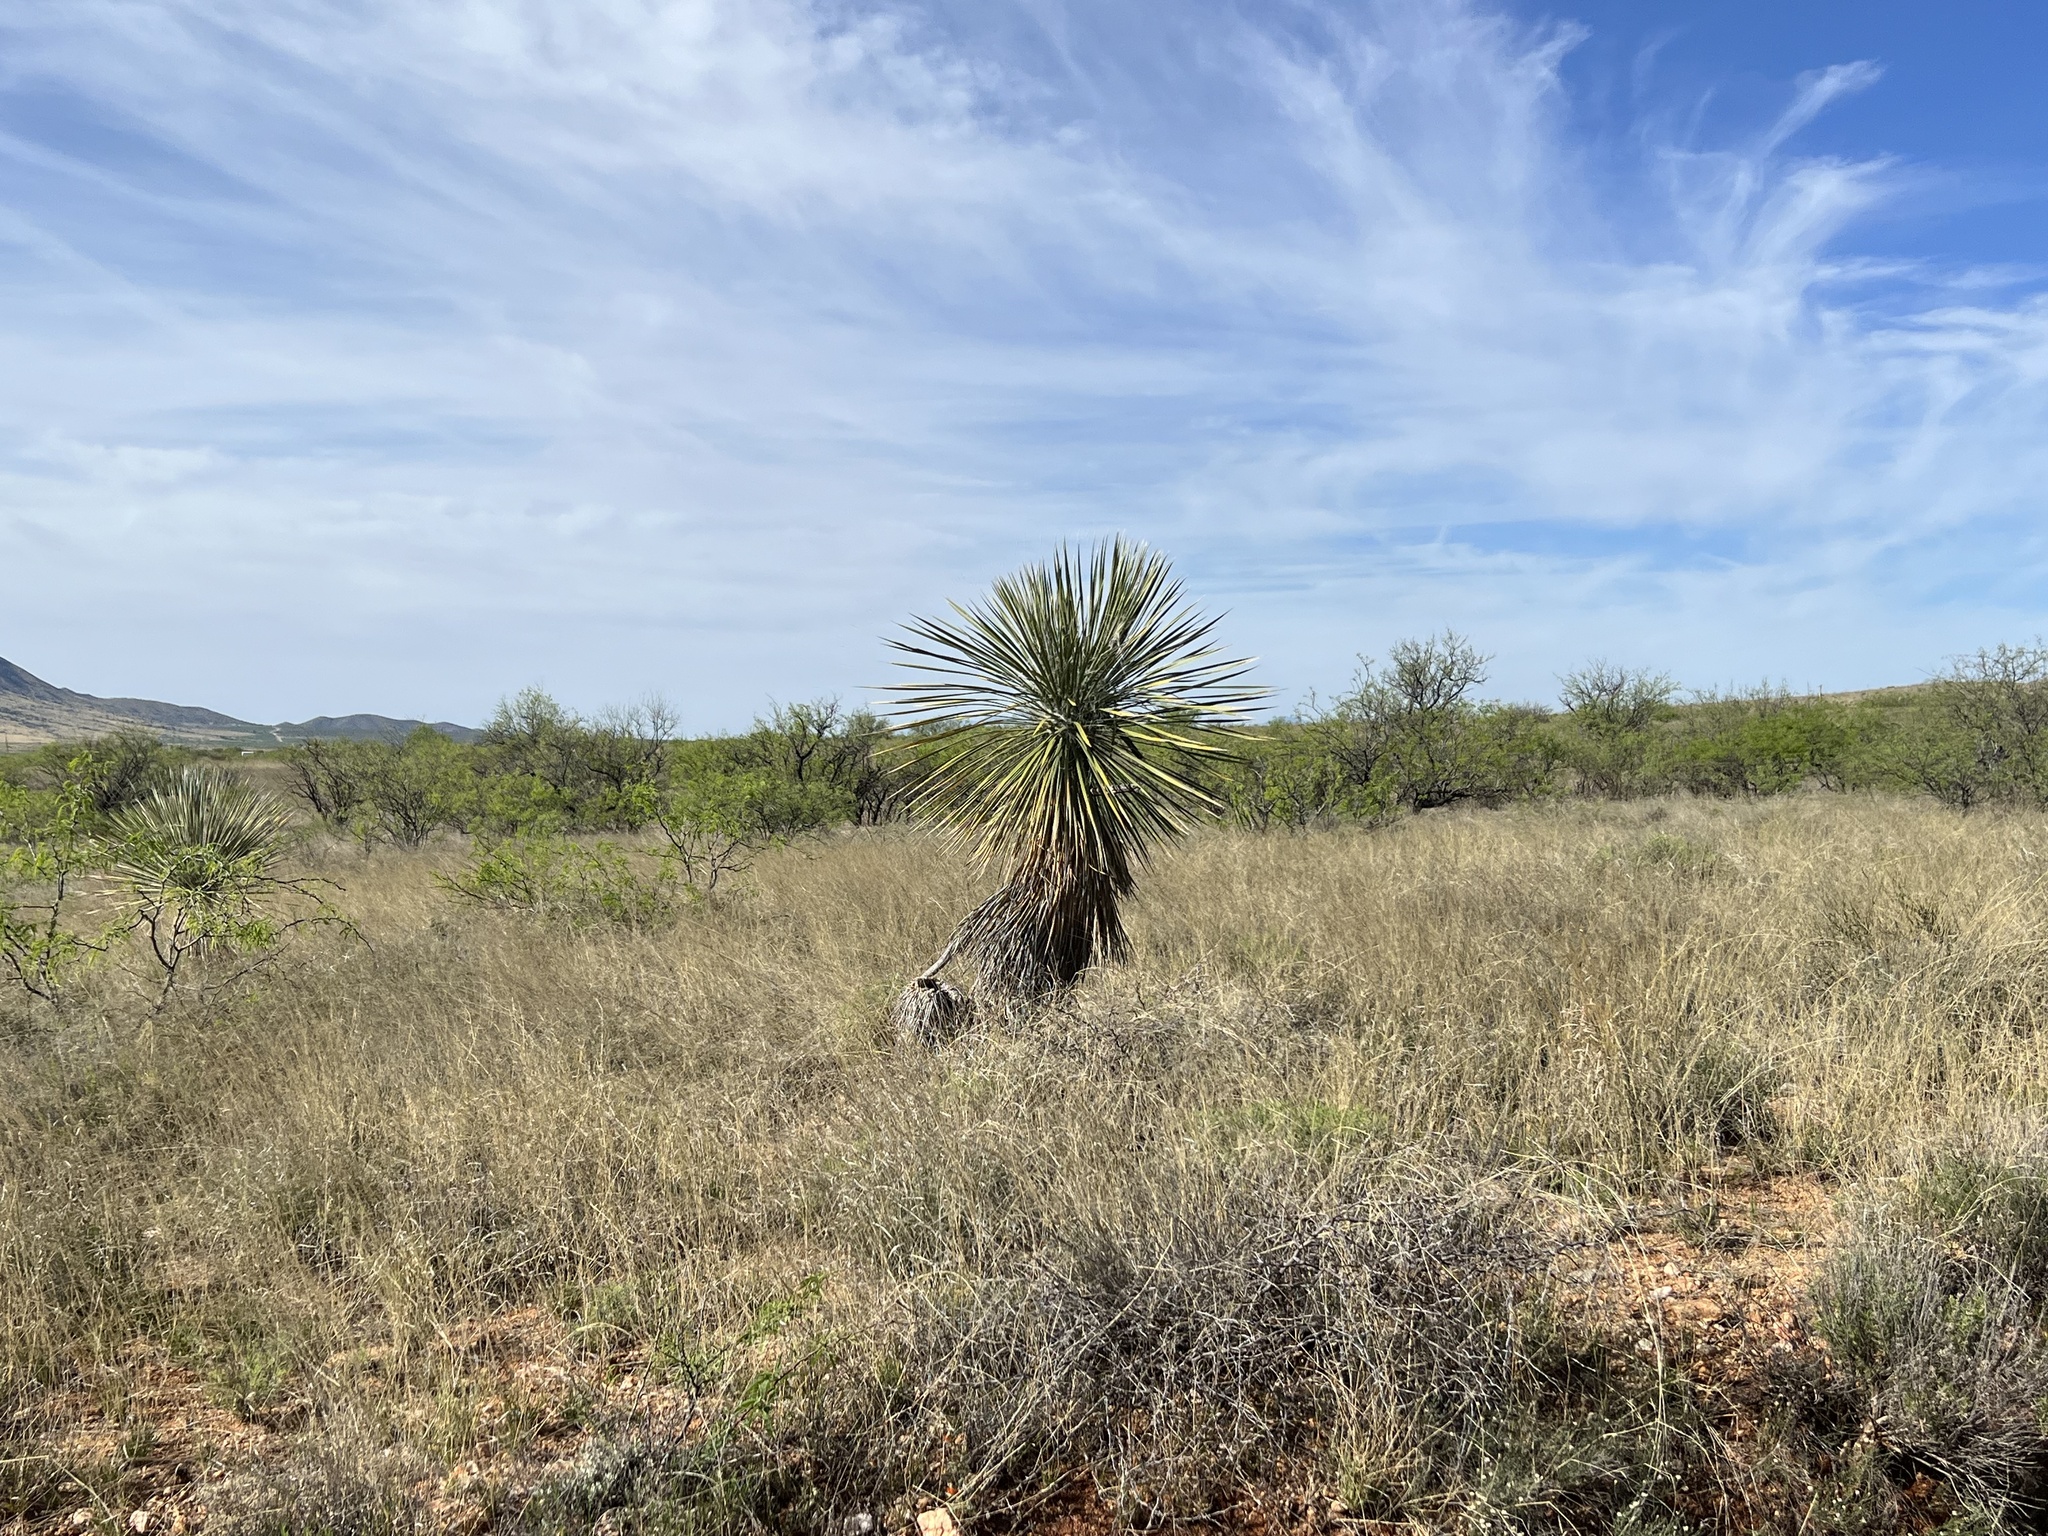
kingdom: Plantae
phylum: Tracheophyta
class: Liliopsida
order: Asparagales
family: Asparagaceae
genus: Yucca
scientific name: Yucca elata
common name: Palmella
